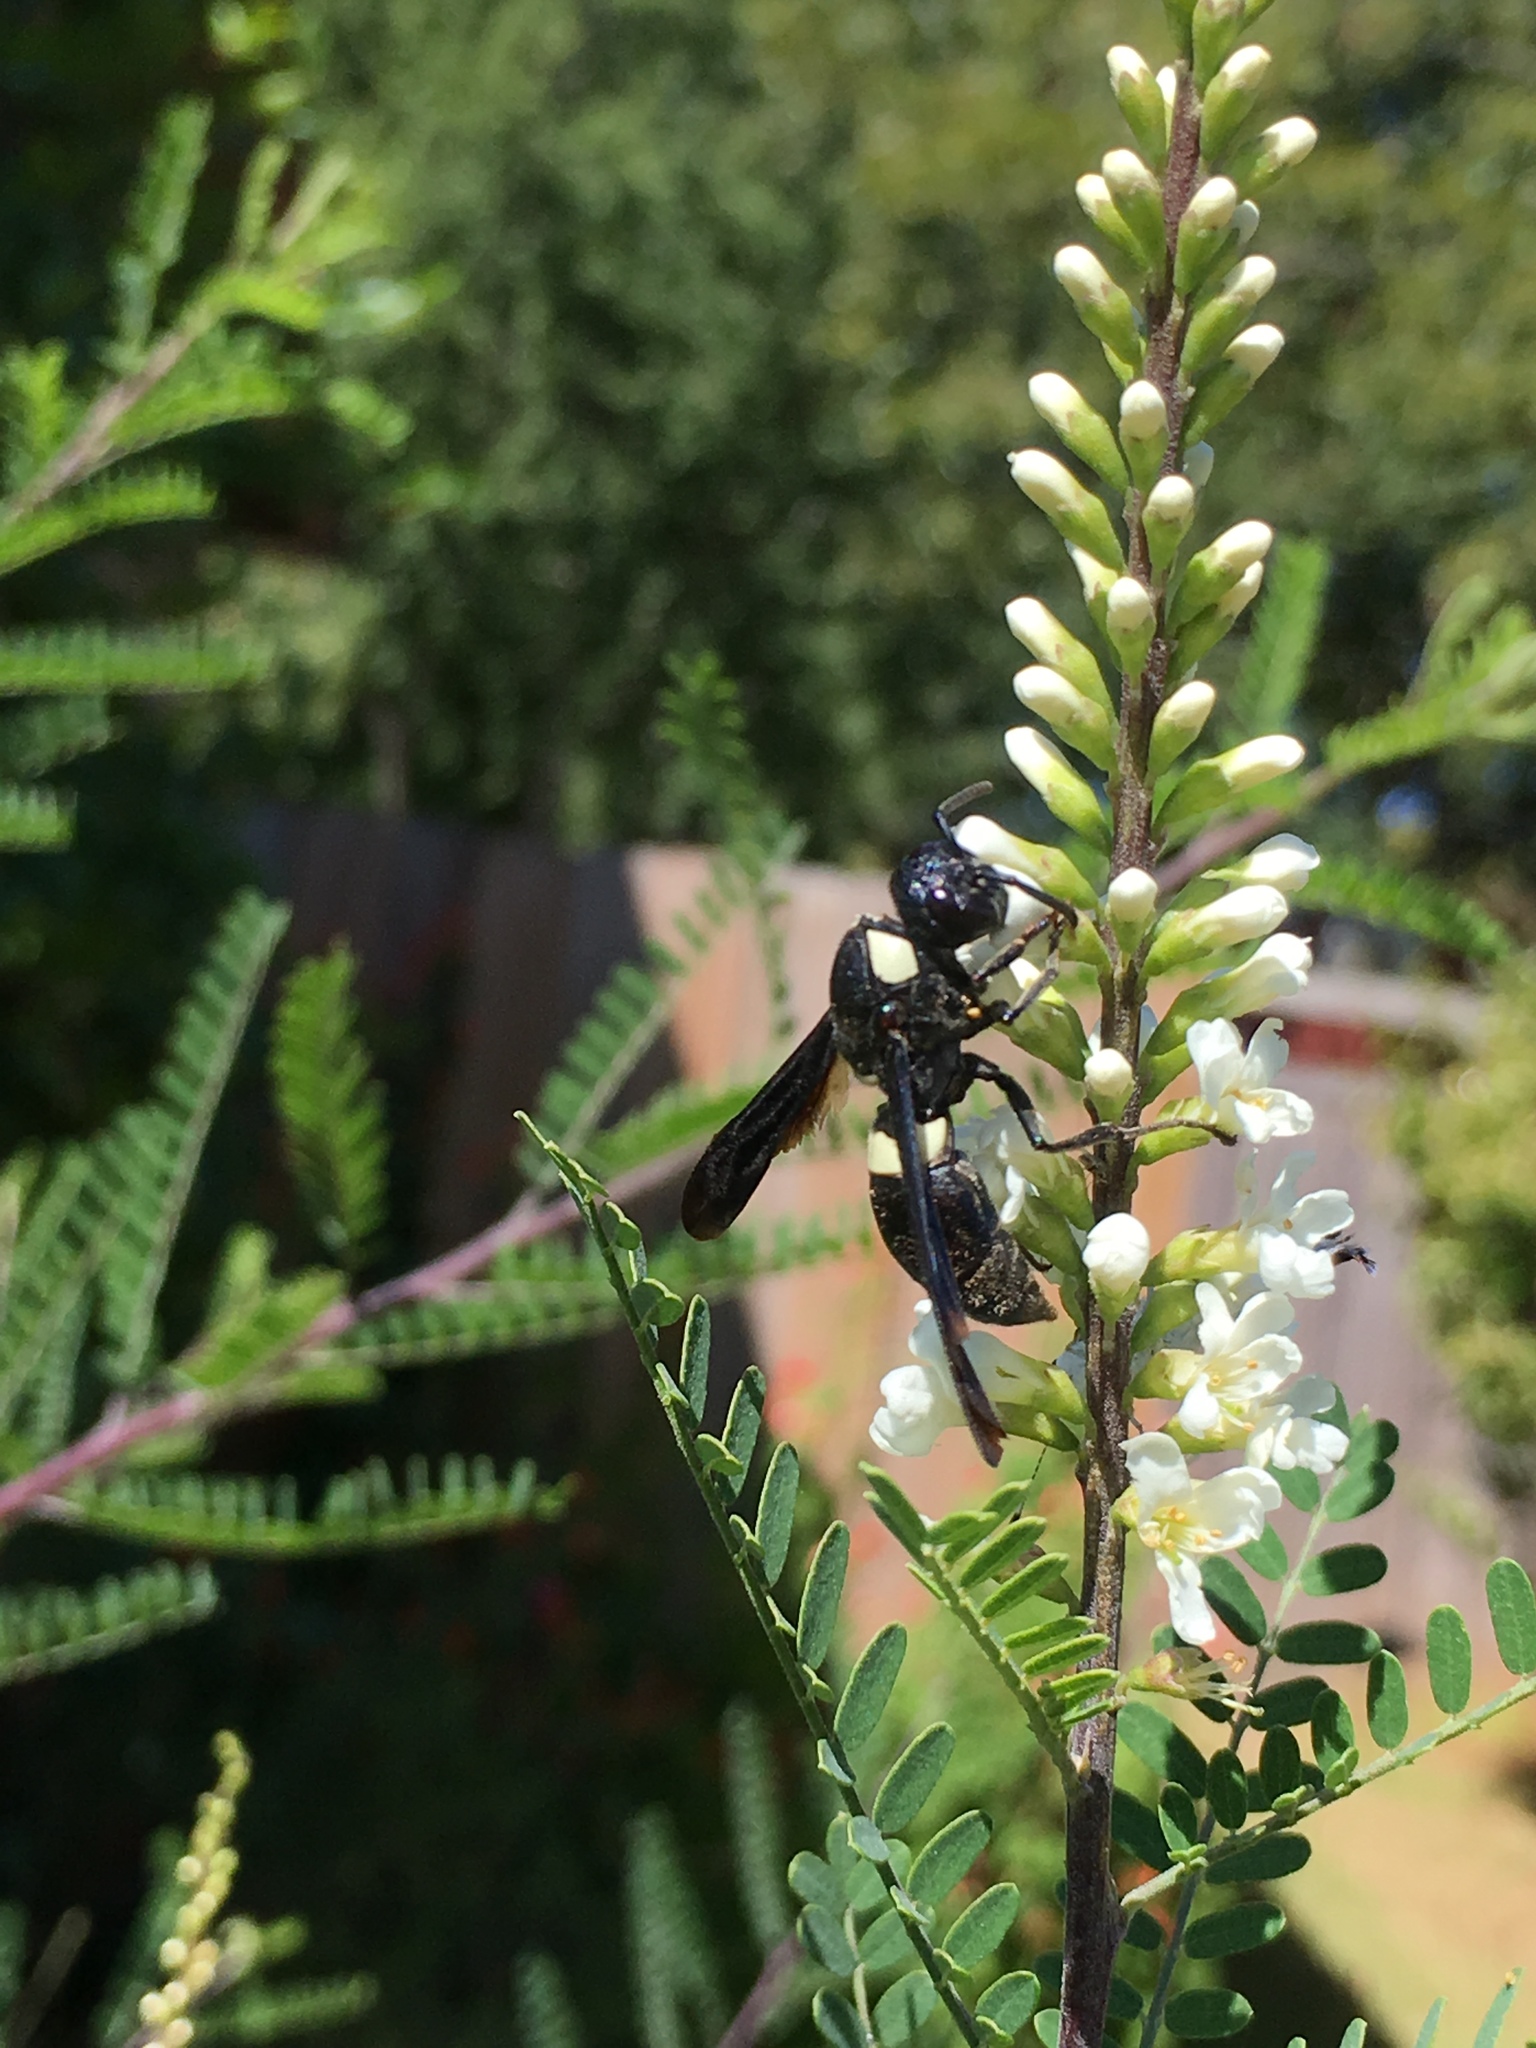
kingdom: Animalia
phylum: Arthropoda
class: Insecta
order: Hymenoptera
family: Eumenidae
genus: Monobia
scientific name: Monobia quadridens
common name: Four-toothed mason wasp
